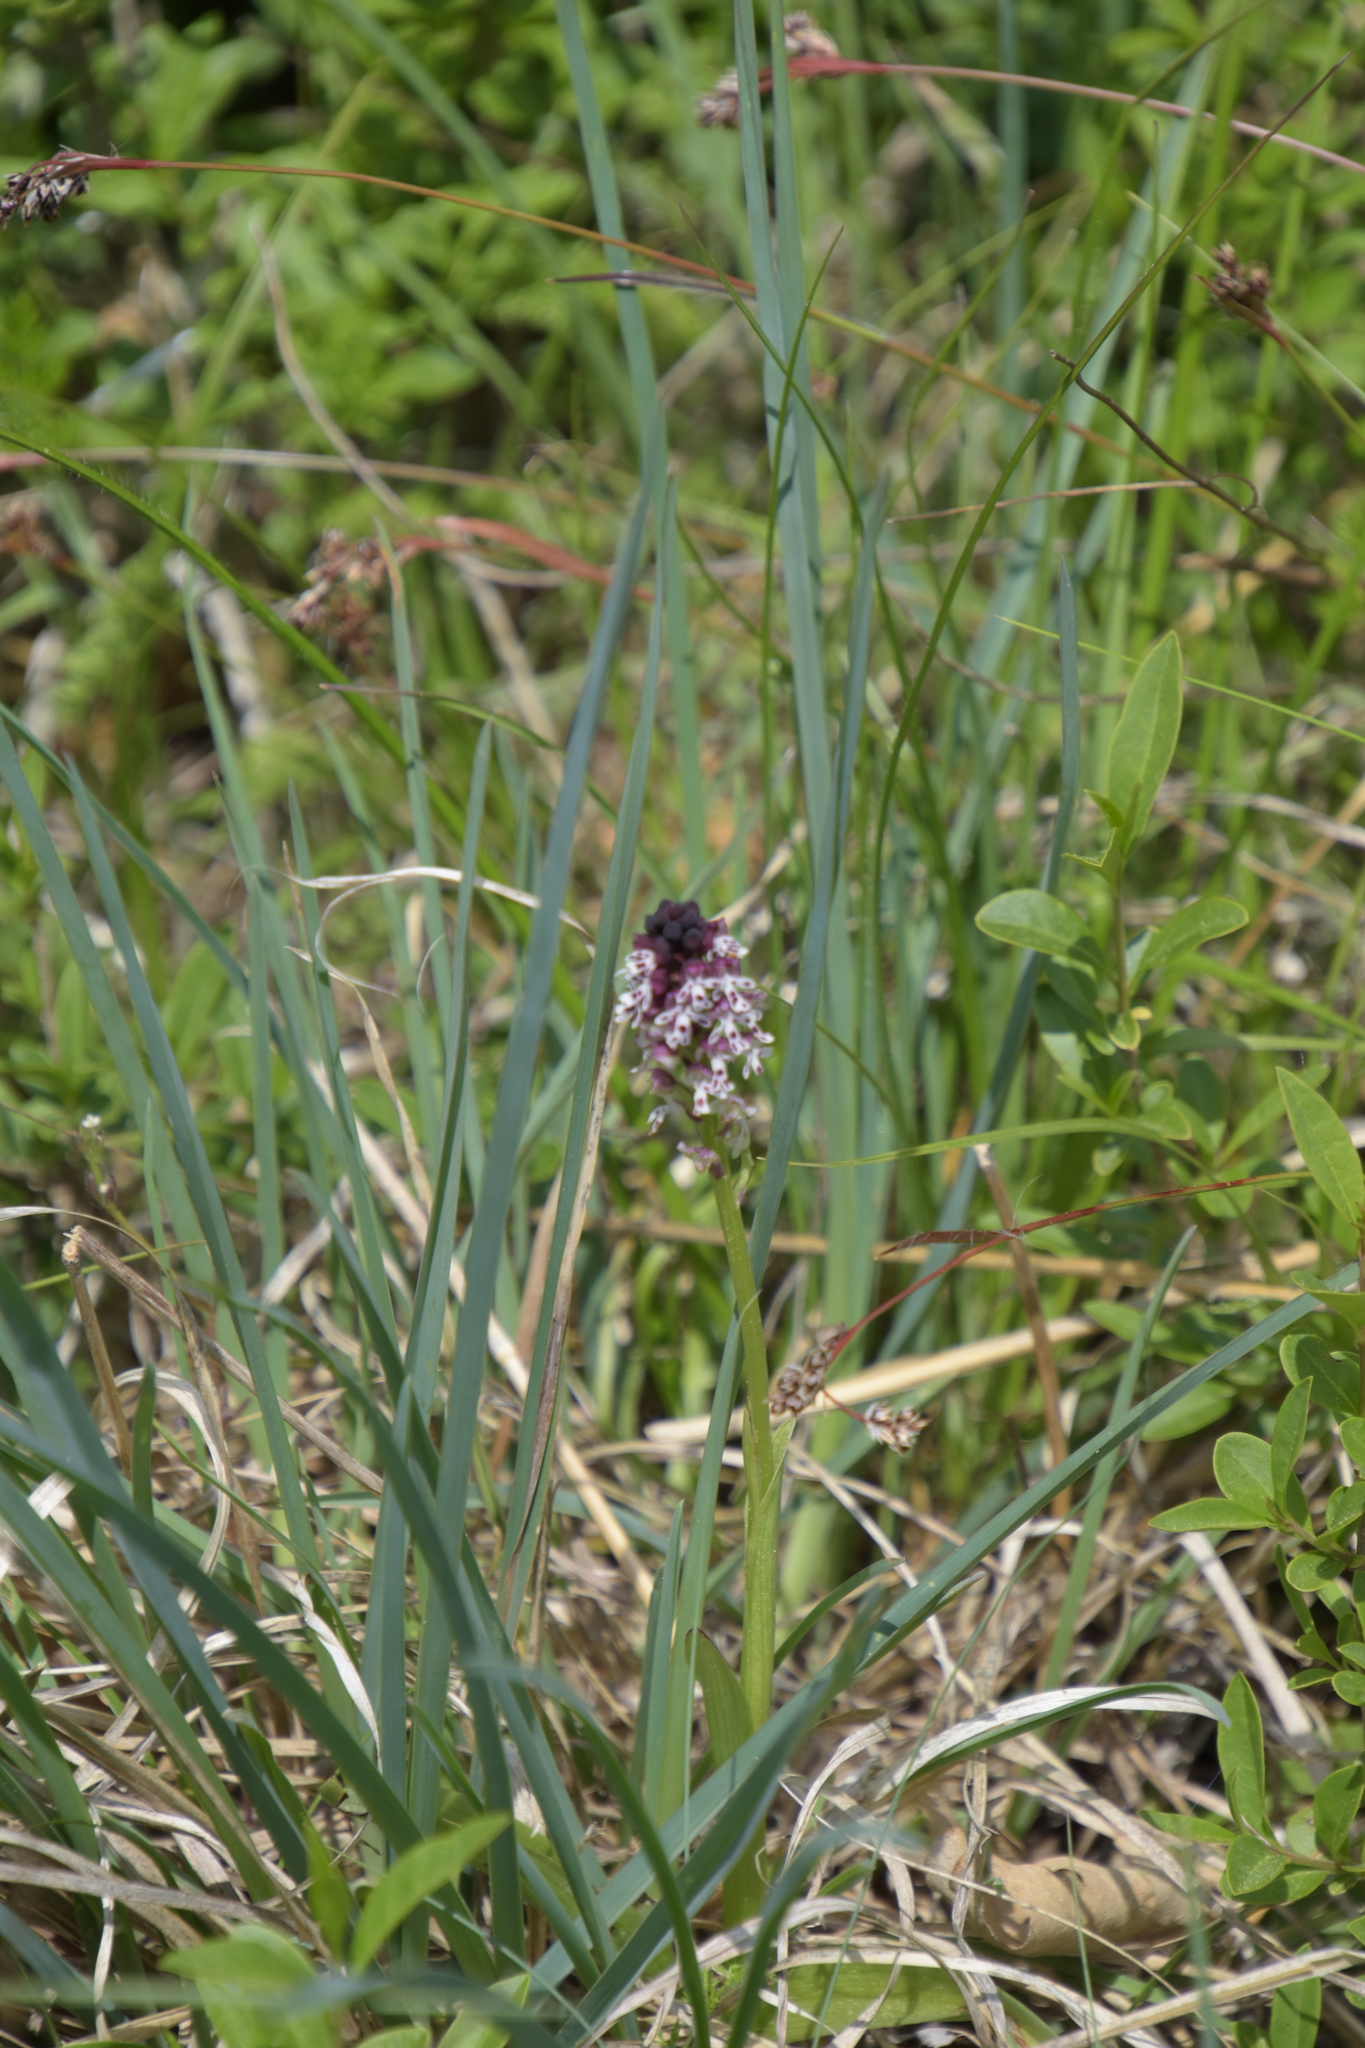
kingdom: Plantae
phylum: Tracheophyta
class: Liliopsida
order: Asparagales
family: Orchidaceae
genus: Neotinea
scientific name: Neotinea ustulata
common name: Burnt orchid
